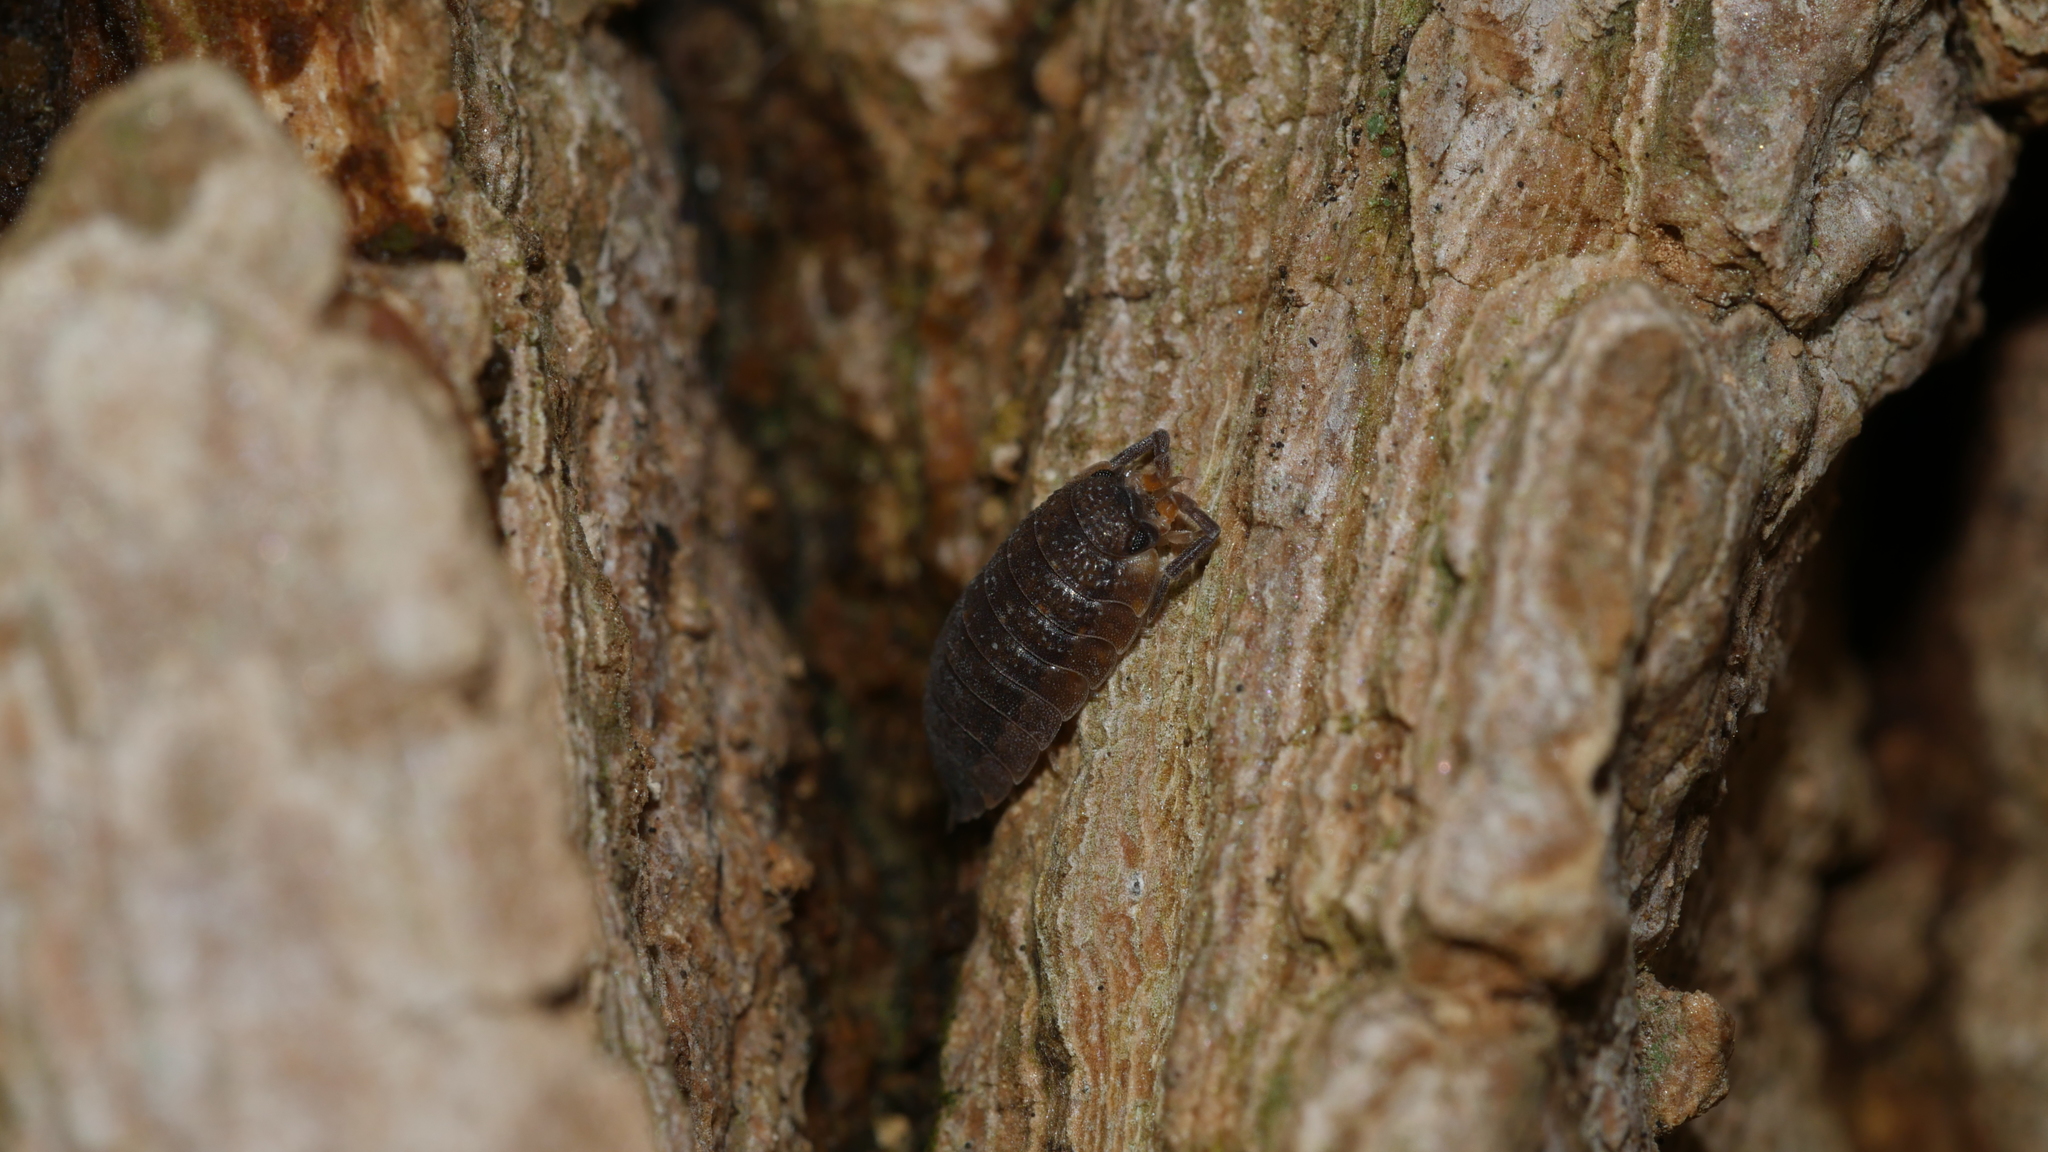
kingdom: Animalia
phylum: Arthropoda
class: Malacostraca
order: Isopoda
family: Porcellionidae
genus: Porcellio
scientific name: Porcellio scaber
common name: Common rough woodlouse
